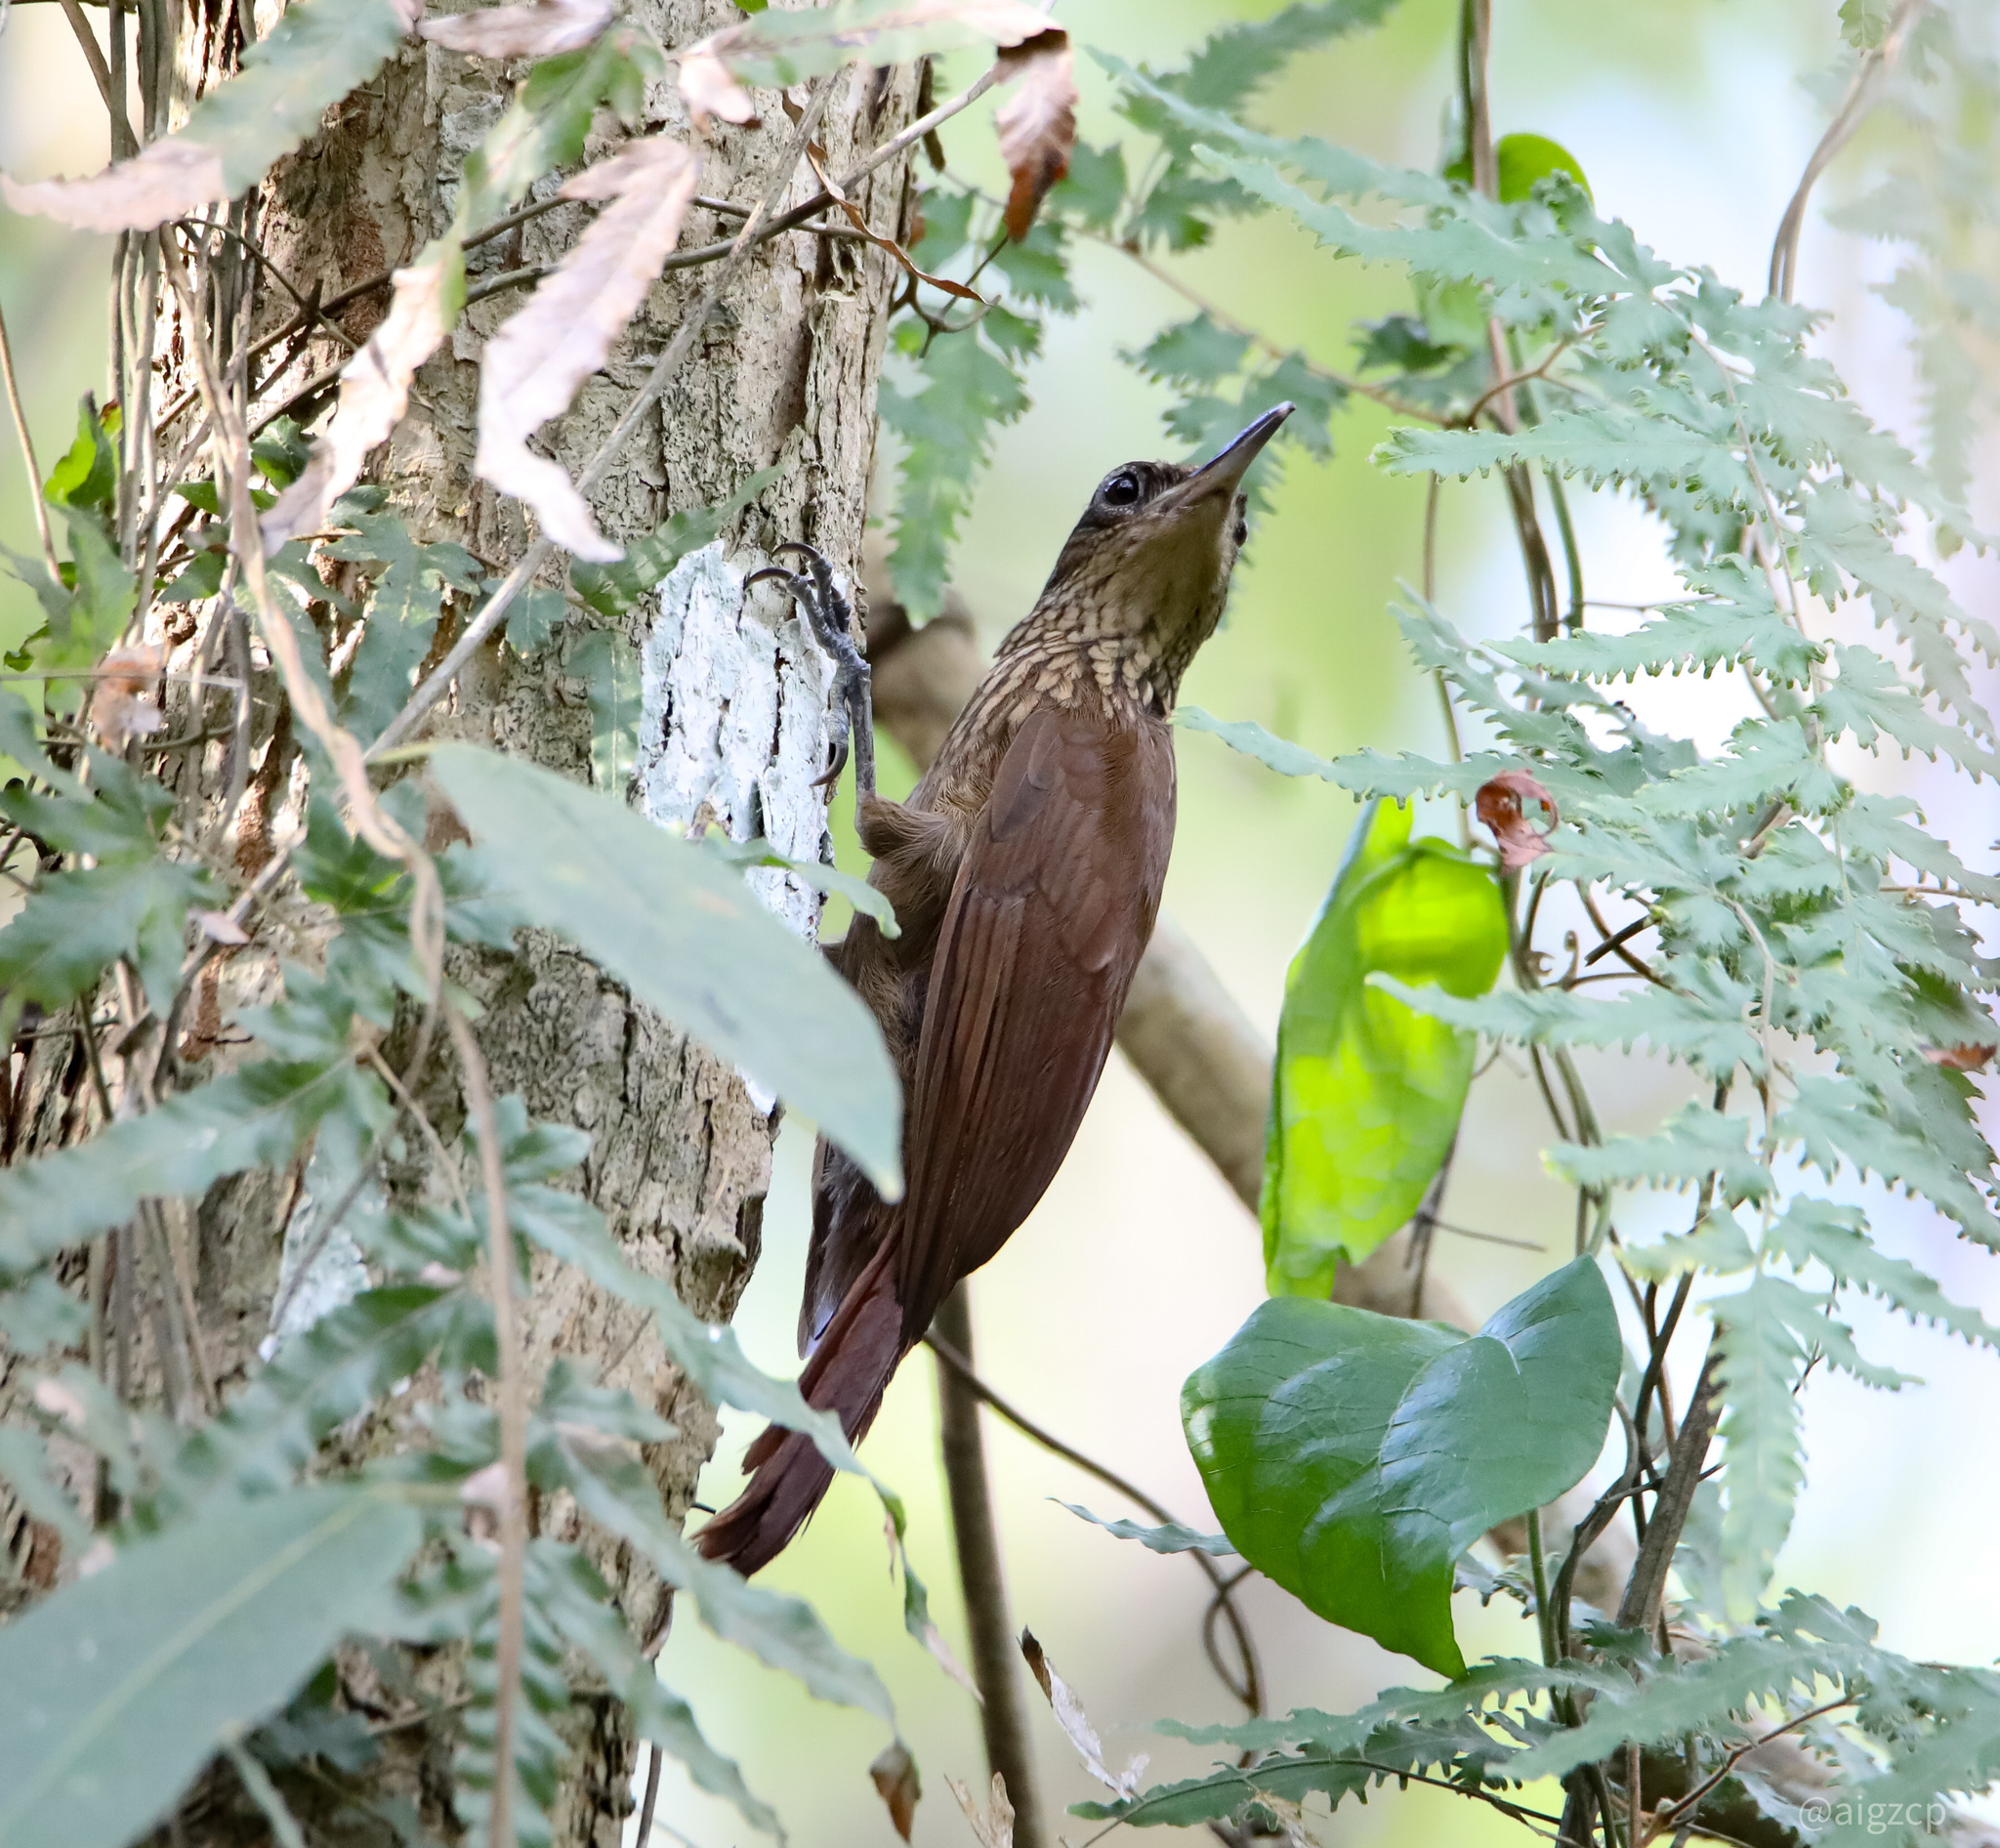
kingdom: Animalia
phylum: Chordata
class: Aves
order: Passeriformes
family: Furnariidae
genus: Xiphorhynchus
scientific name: Xiphorhynchus susurrans
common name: Cocoa woodcreeper
